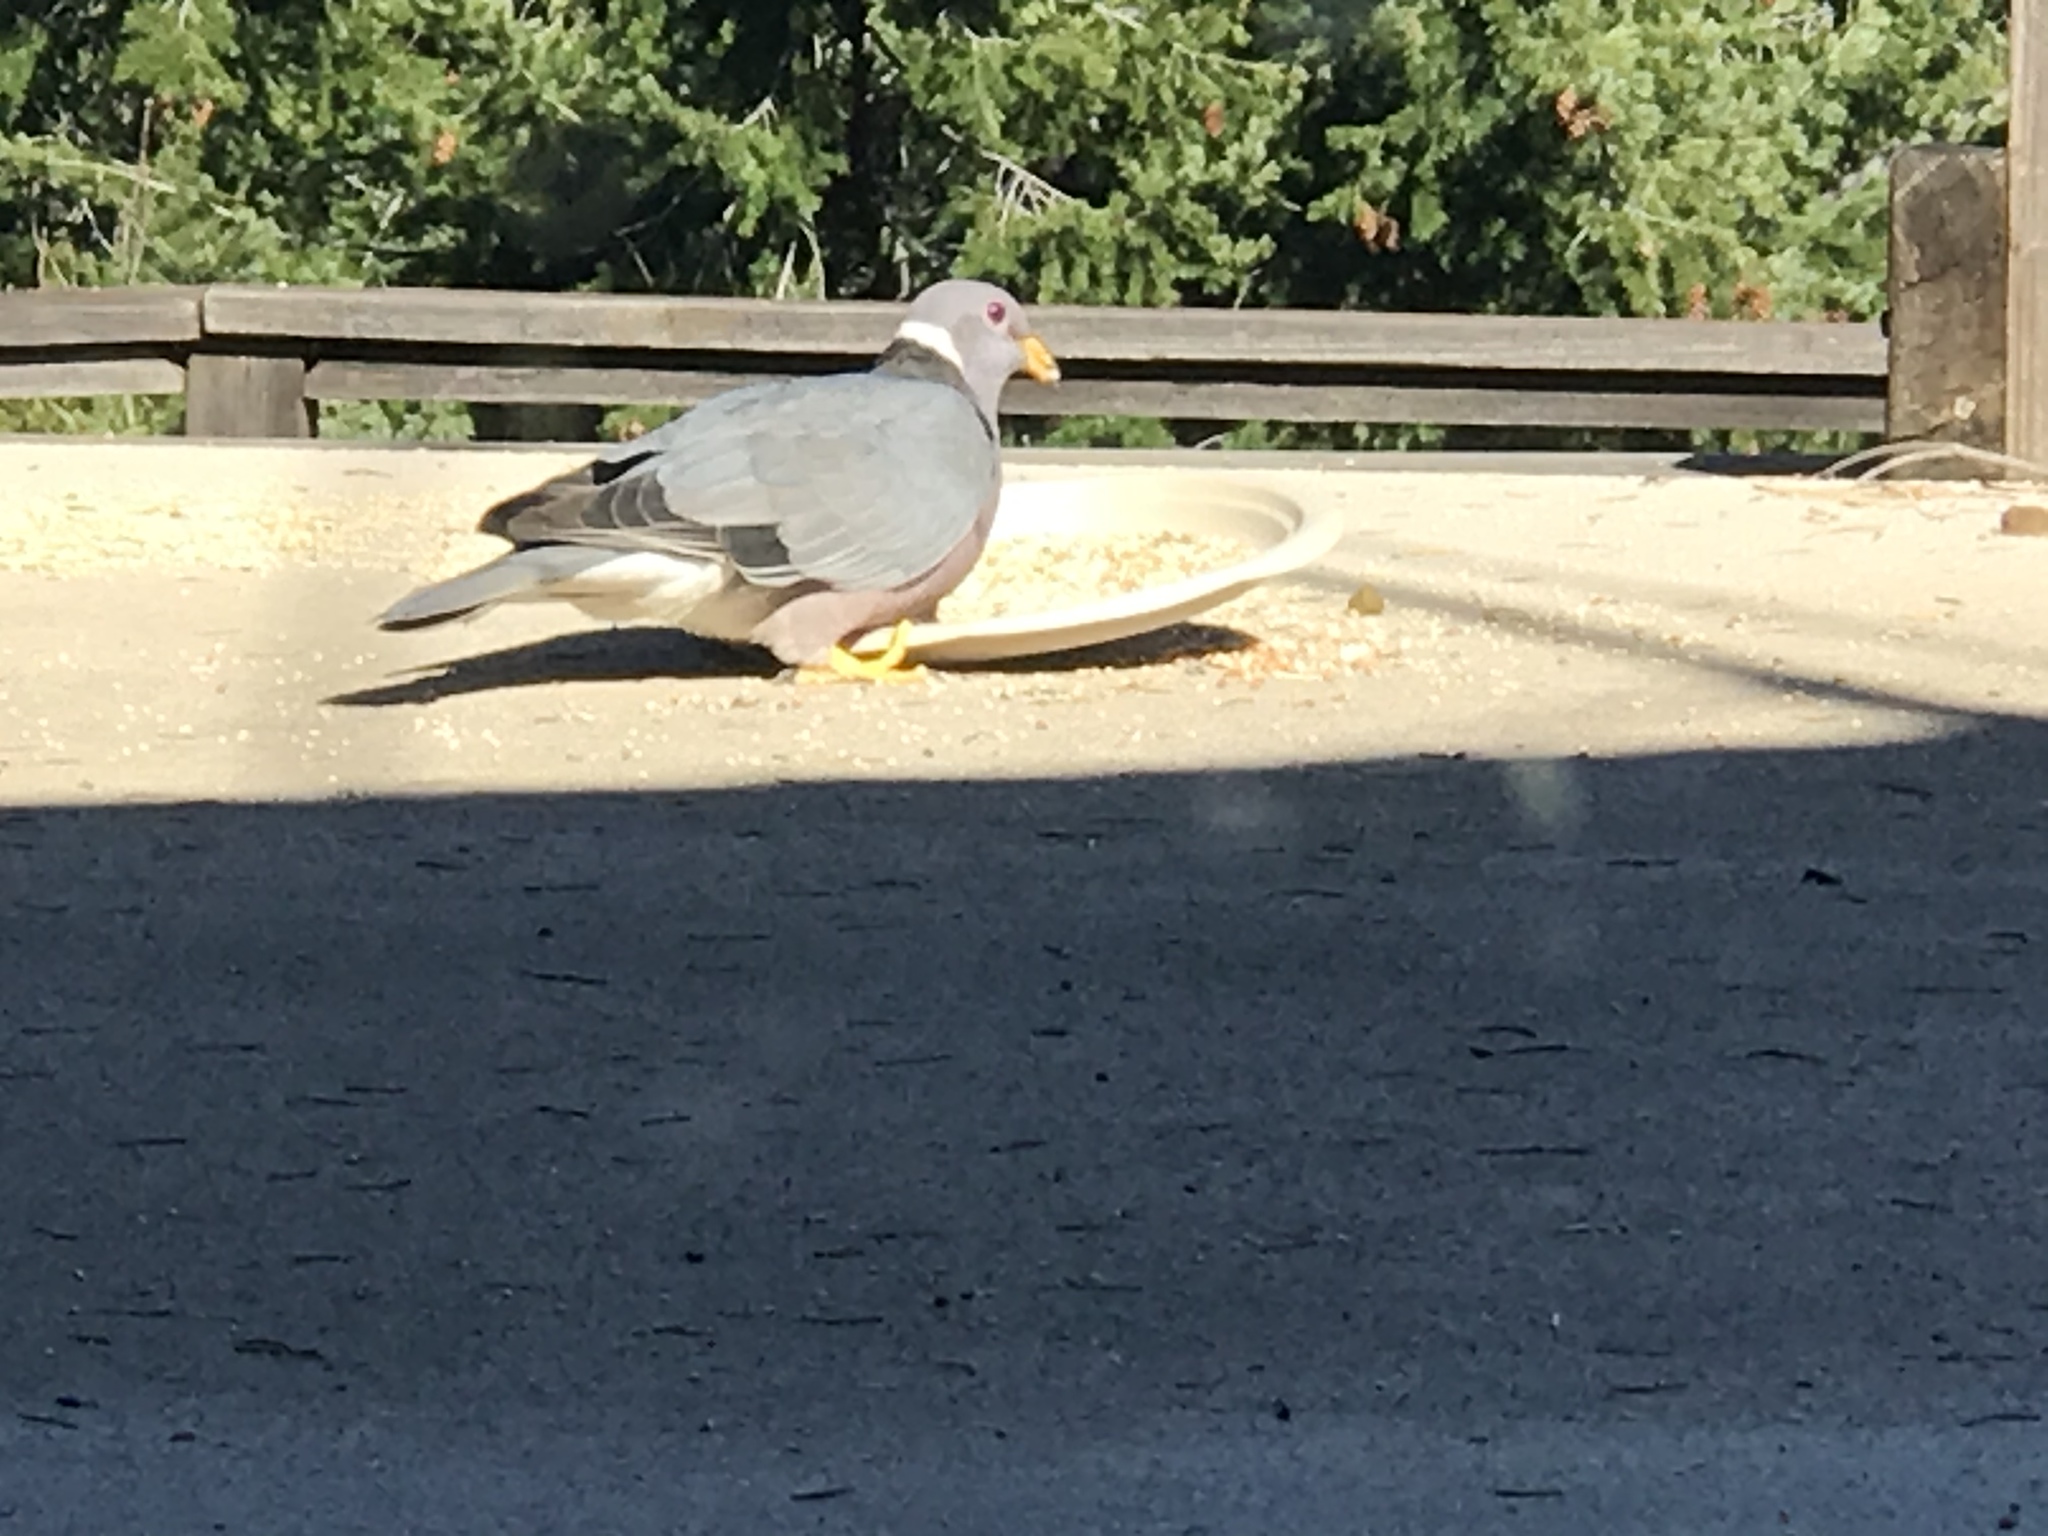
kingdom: Animalia
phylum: Chordata
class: Aves
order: Columbiformes
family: Columbidae
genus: Patagioenas
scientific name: Patagioenas fasciata
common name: Band-tailed pigeon
